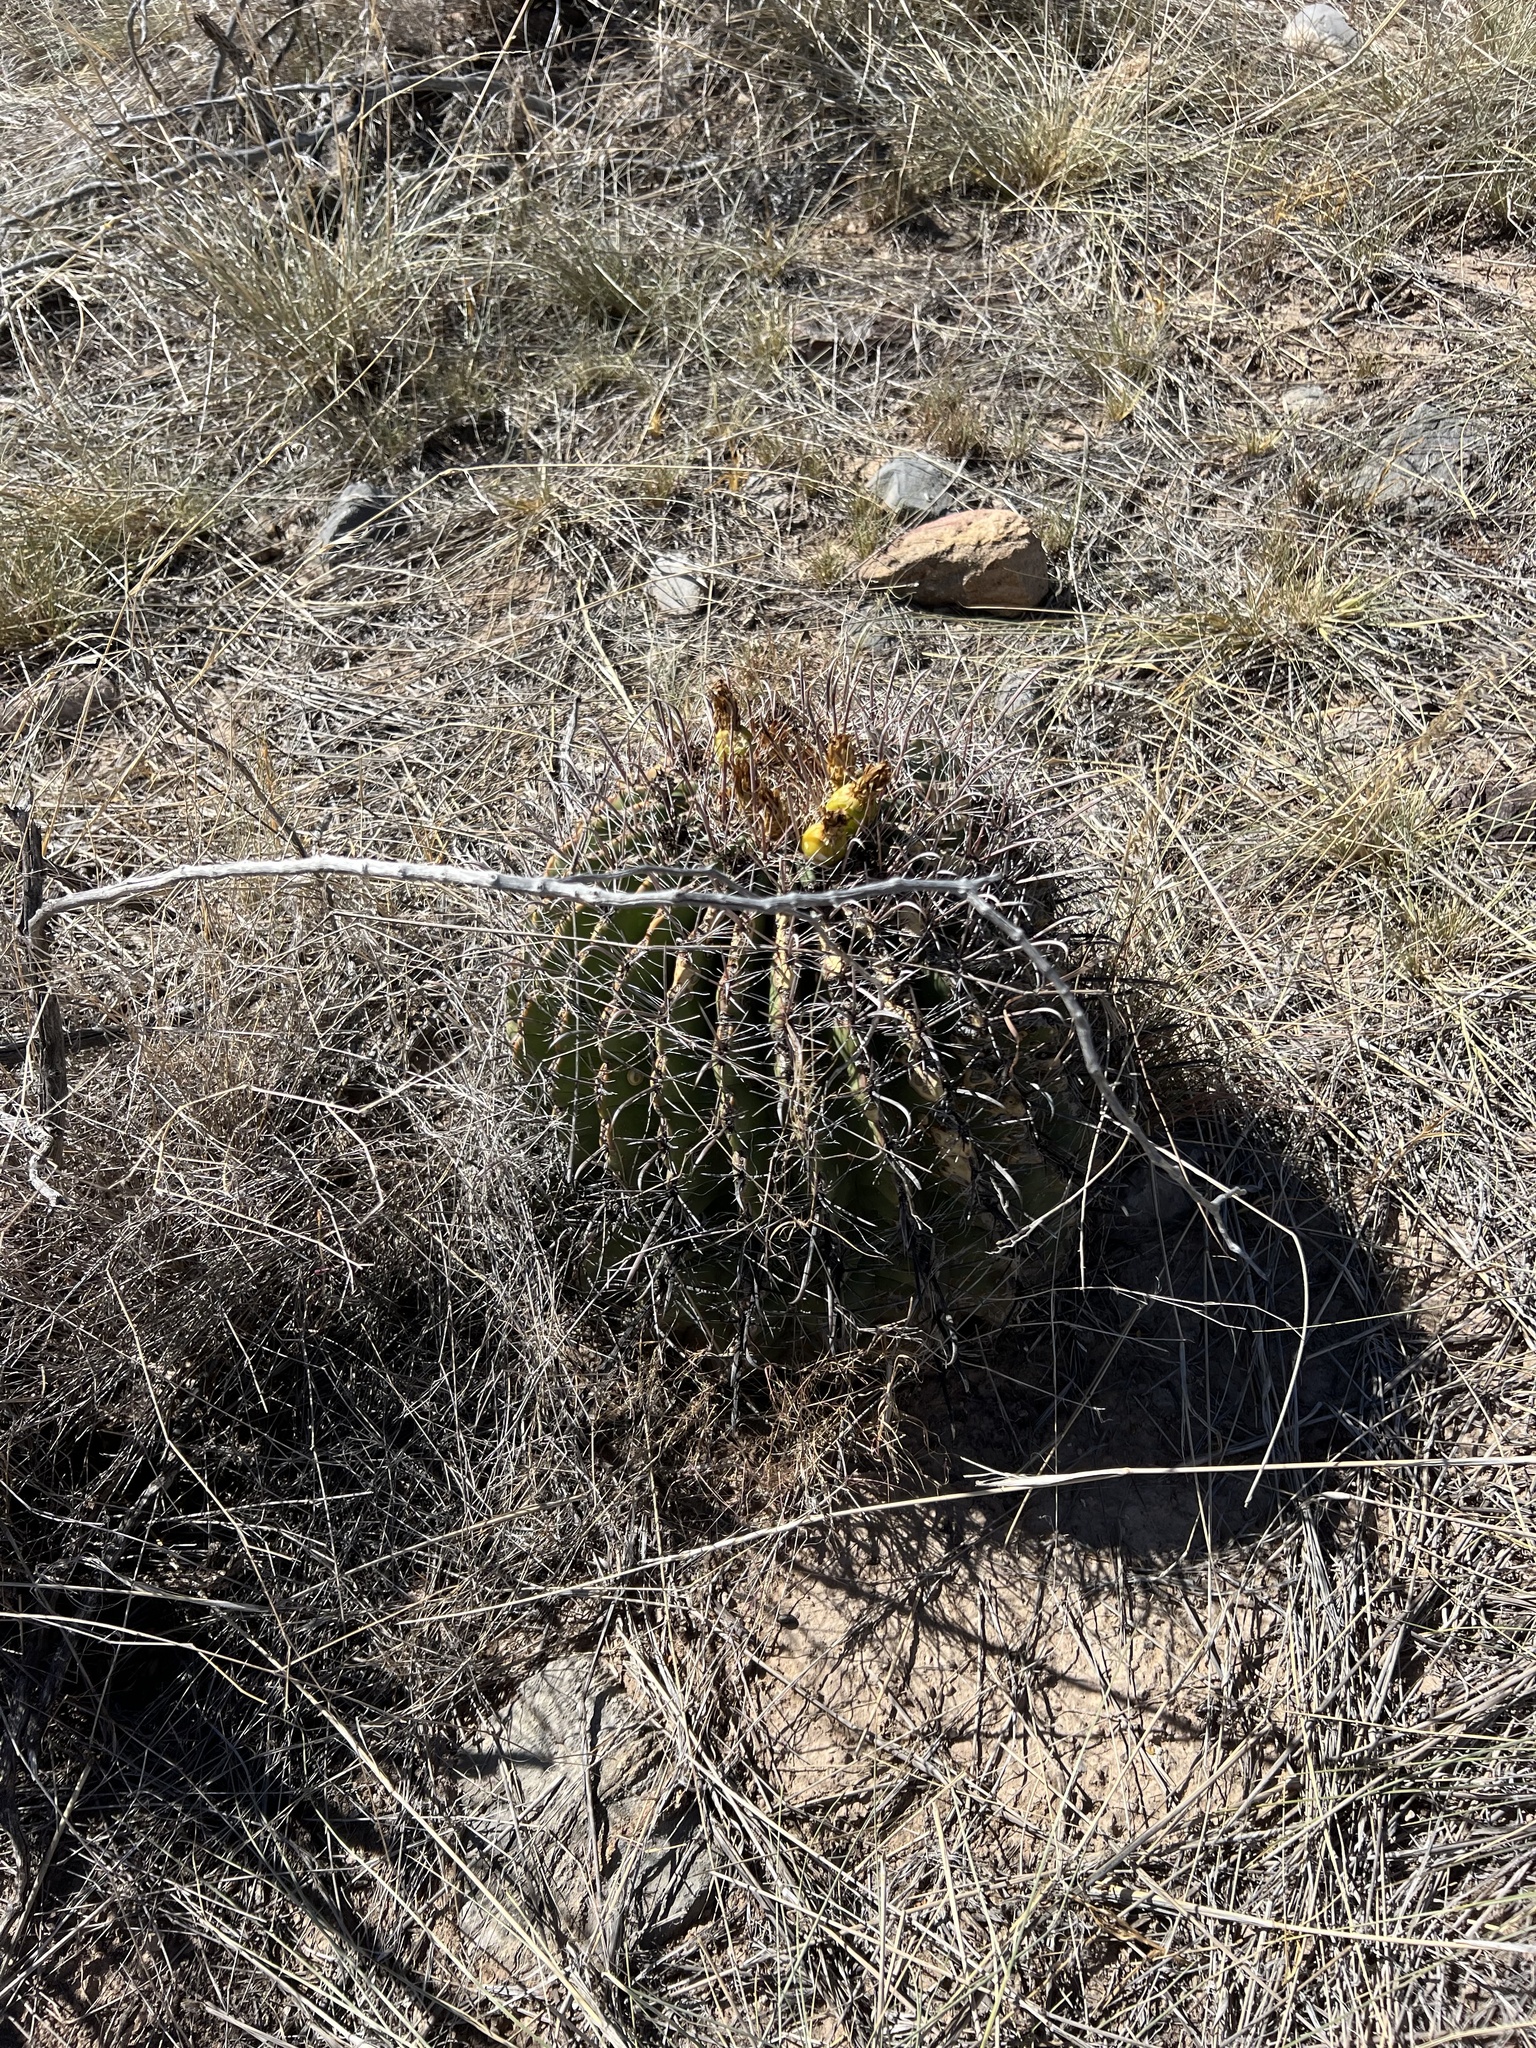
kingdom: Plantae
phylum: Tracheophyta
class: Magnoliopsida
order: Caryophyllales
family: Cactaceae
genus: Ferocactus
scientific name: Ferocactus wislizeni
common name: Candy barrel cactus
